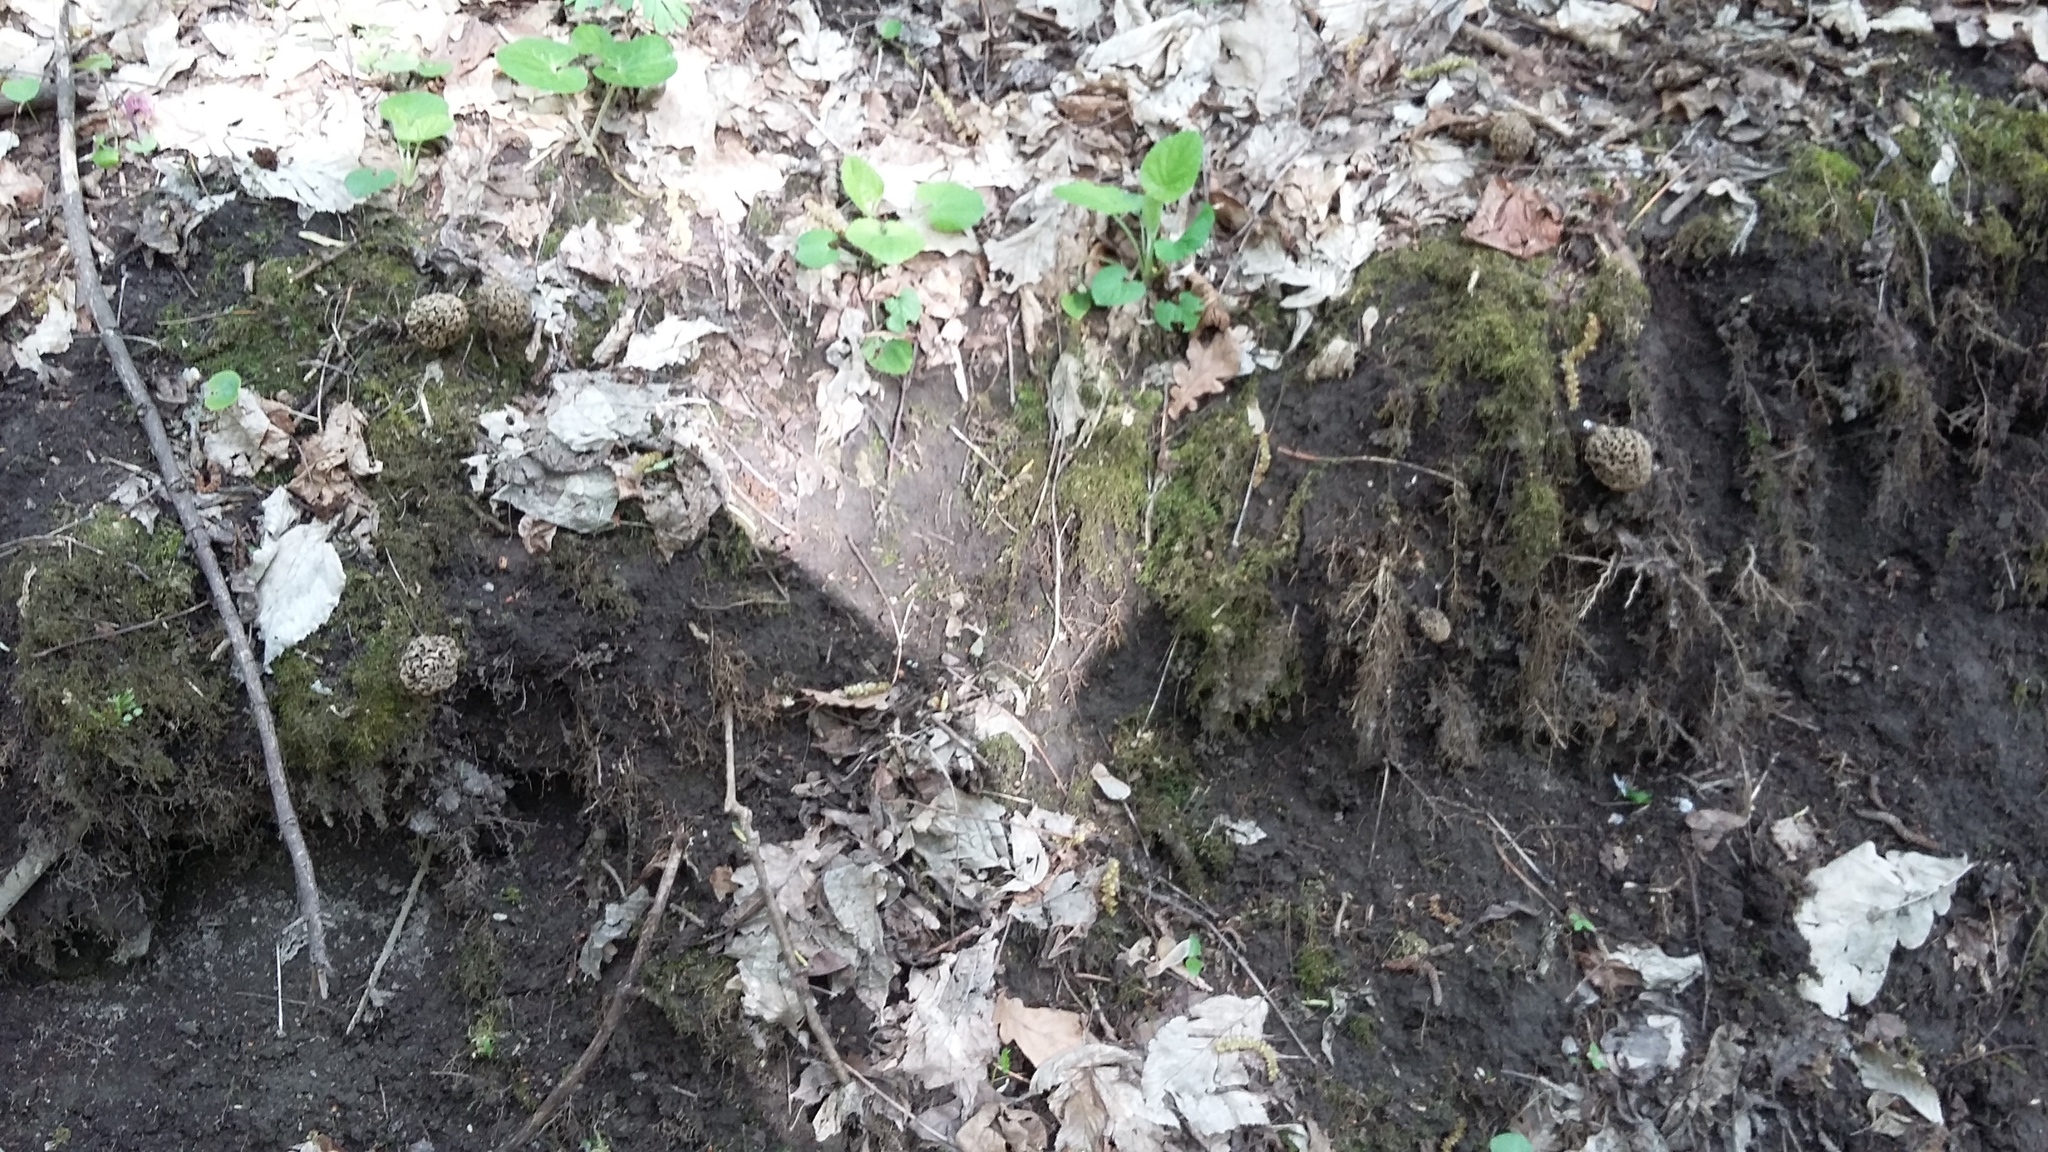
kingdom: Fungi
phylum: Ascomycota
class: Pezizomycetes
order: Pezizales
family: Morchellaceae
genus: Morchella
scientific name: Morchella steppicola
